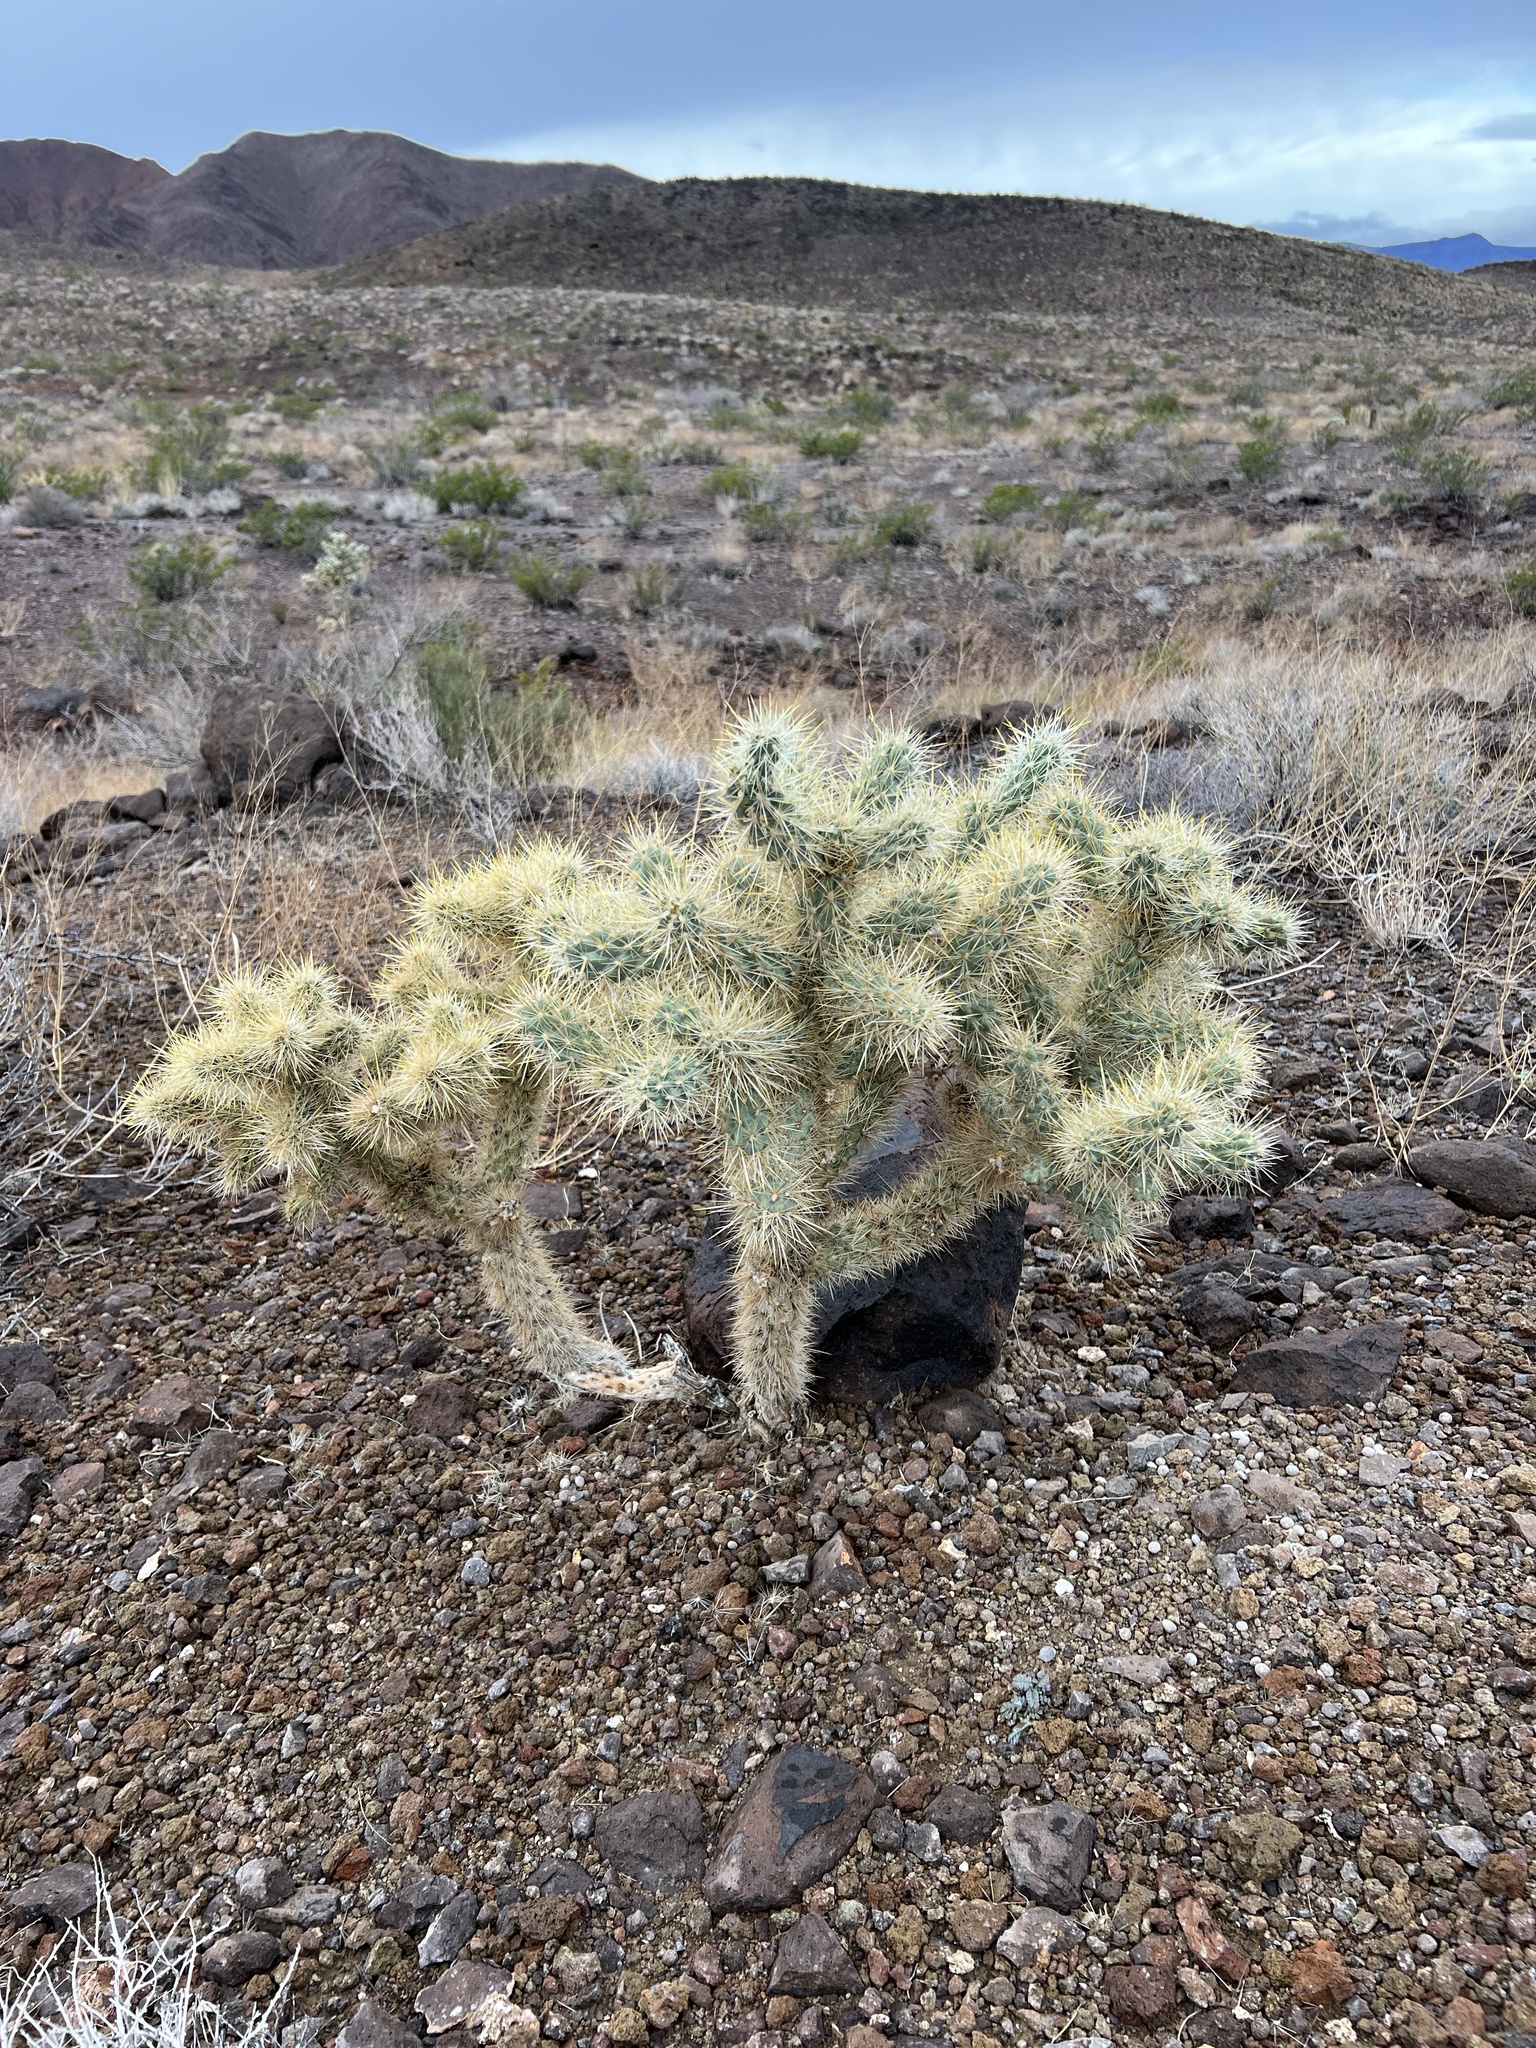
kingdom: Plantae
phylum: Tracheophyta
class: Magnoliopsida
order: Caryophyllales
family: Cactaceae
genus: Cylindropuntia
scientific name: Cylindropuntia echinocarpa
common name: Ground cholla
